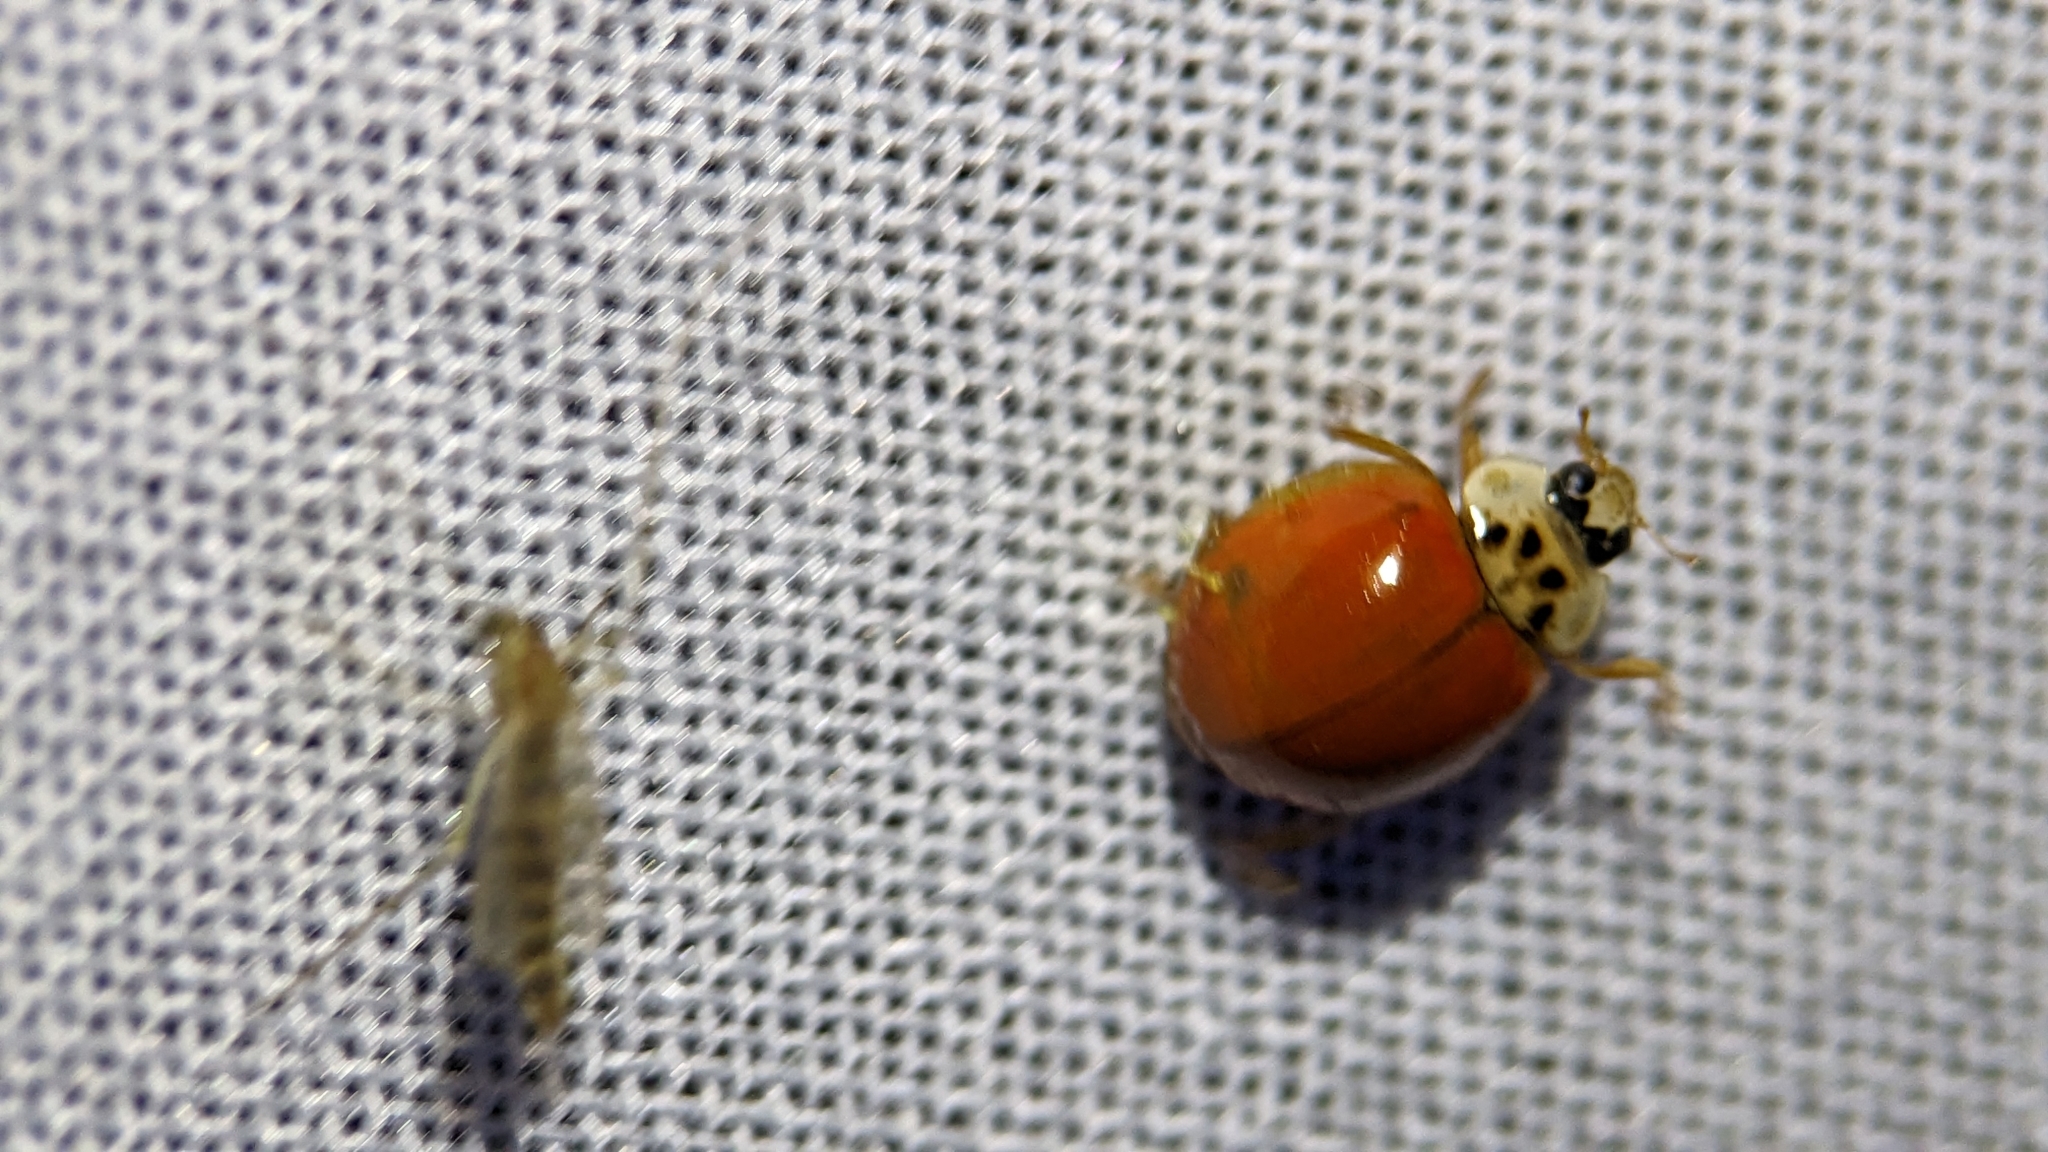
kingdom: Animalia
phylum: Arthropoda
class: Insecta
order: Coleoptera
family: Coccinellidae
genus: Harmonia
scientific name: Harmonia axyridis
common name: Harlequin ladybird
